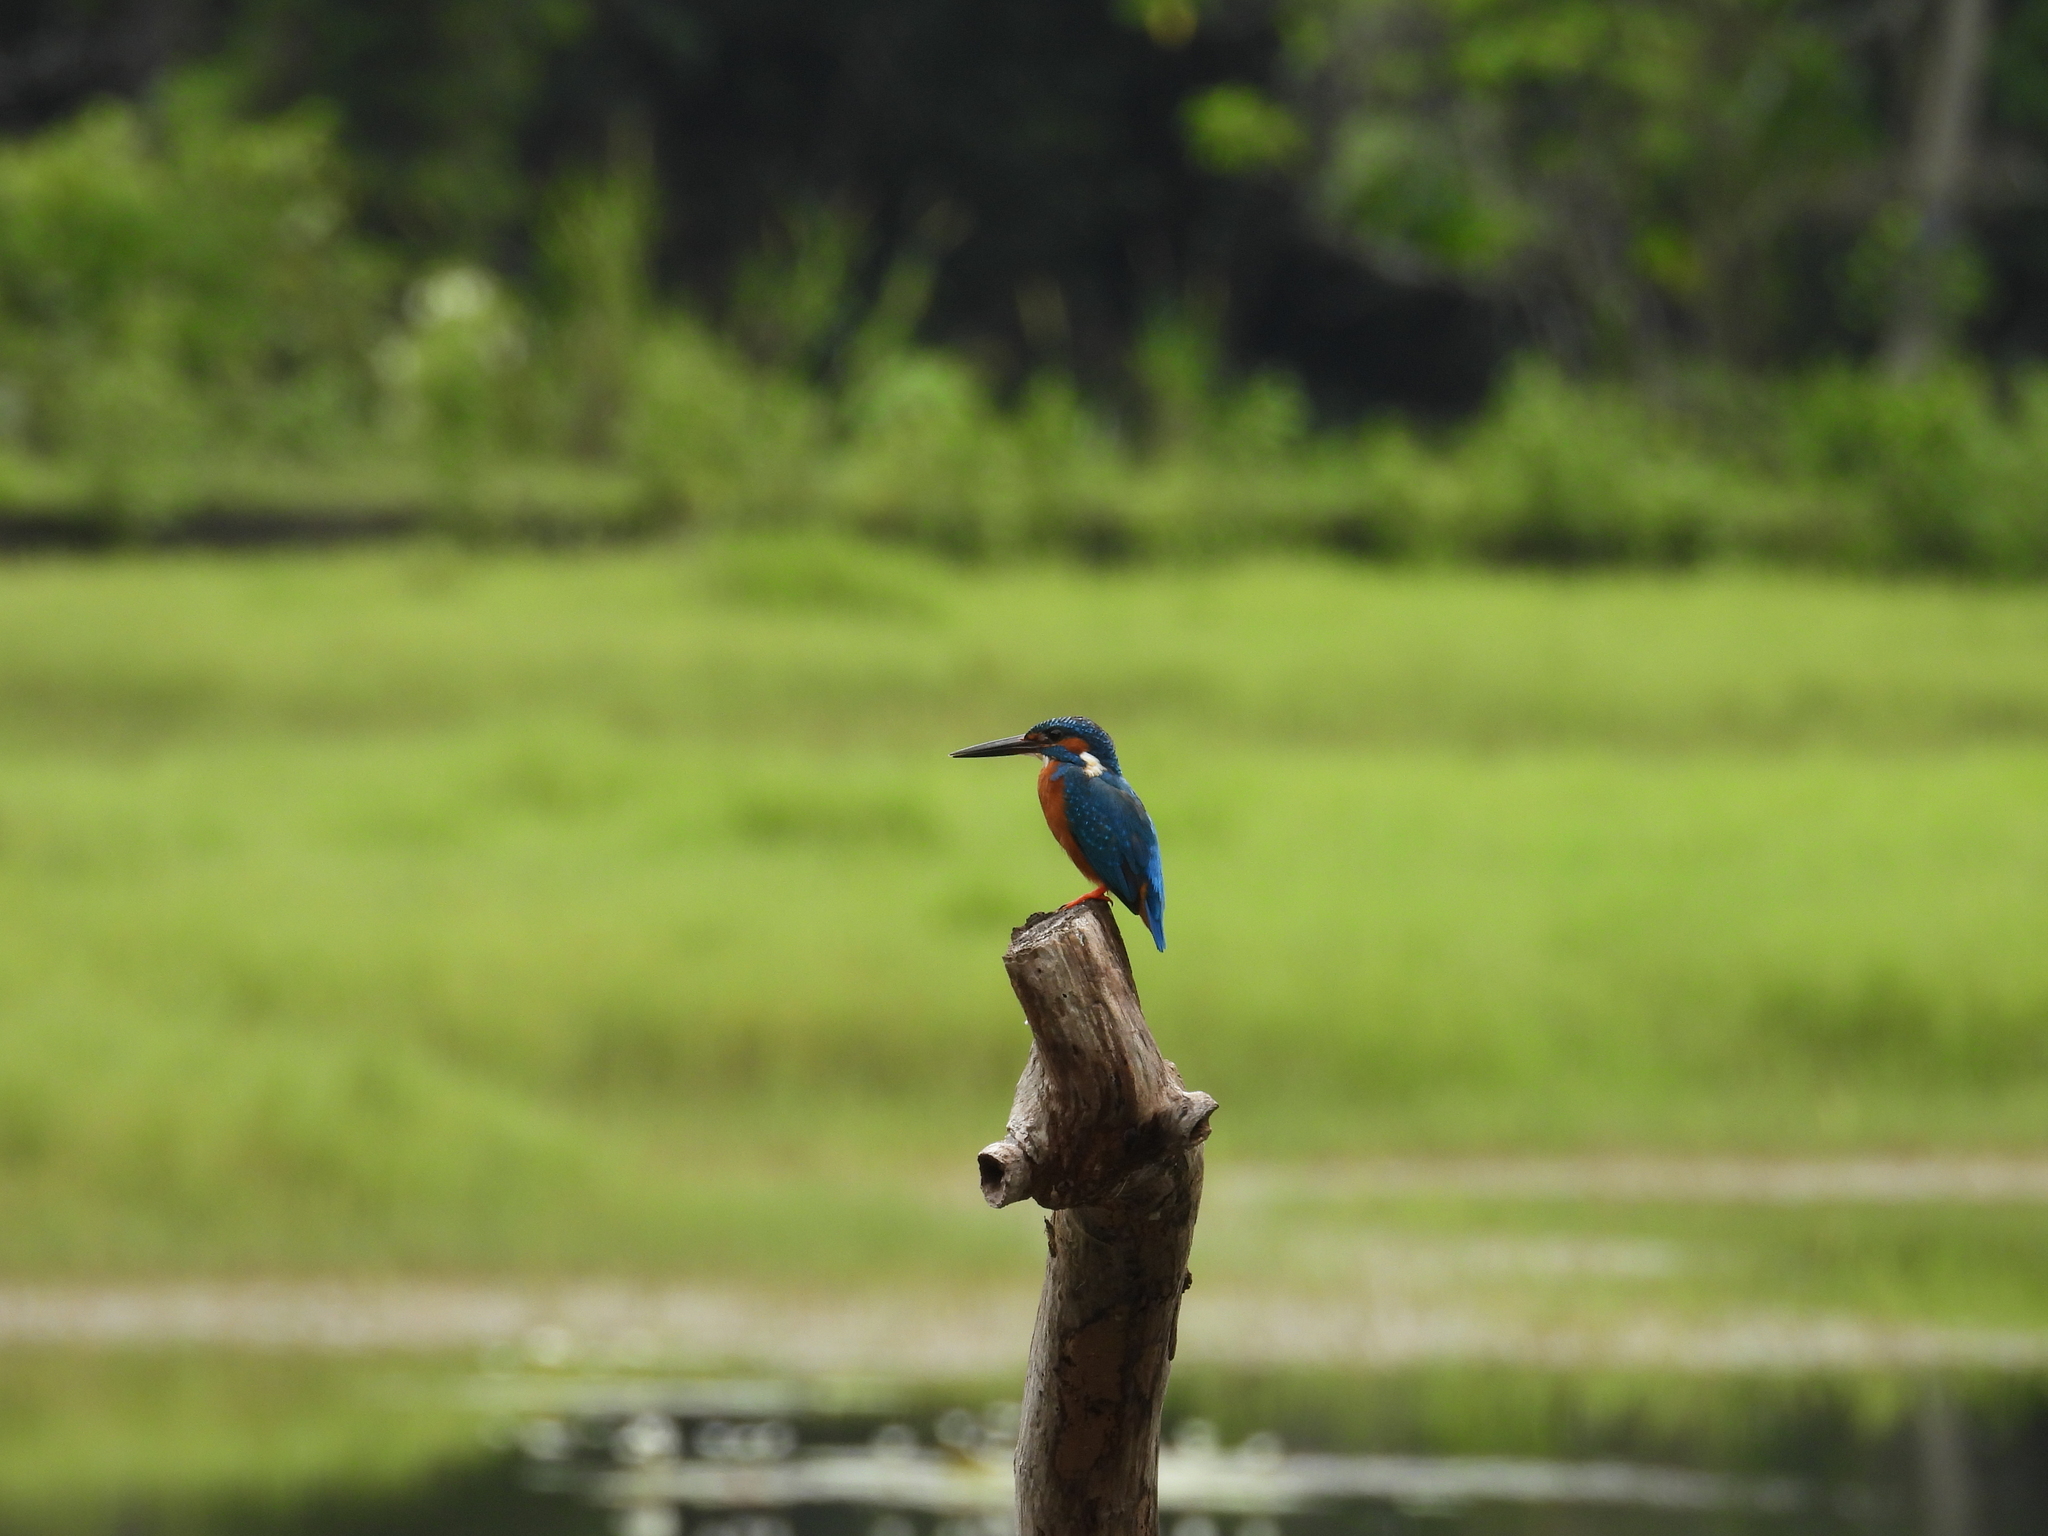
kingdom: Animalia
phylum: Chordata
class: Aves
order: Coraciiformes
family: Alcedinidae
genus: Alcedo
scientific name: Alcedo atthis
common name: Common kingfisher
